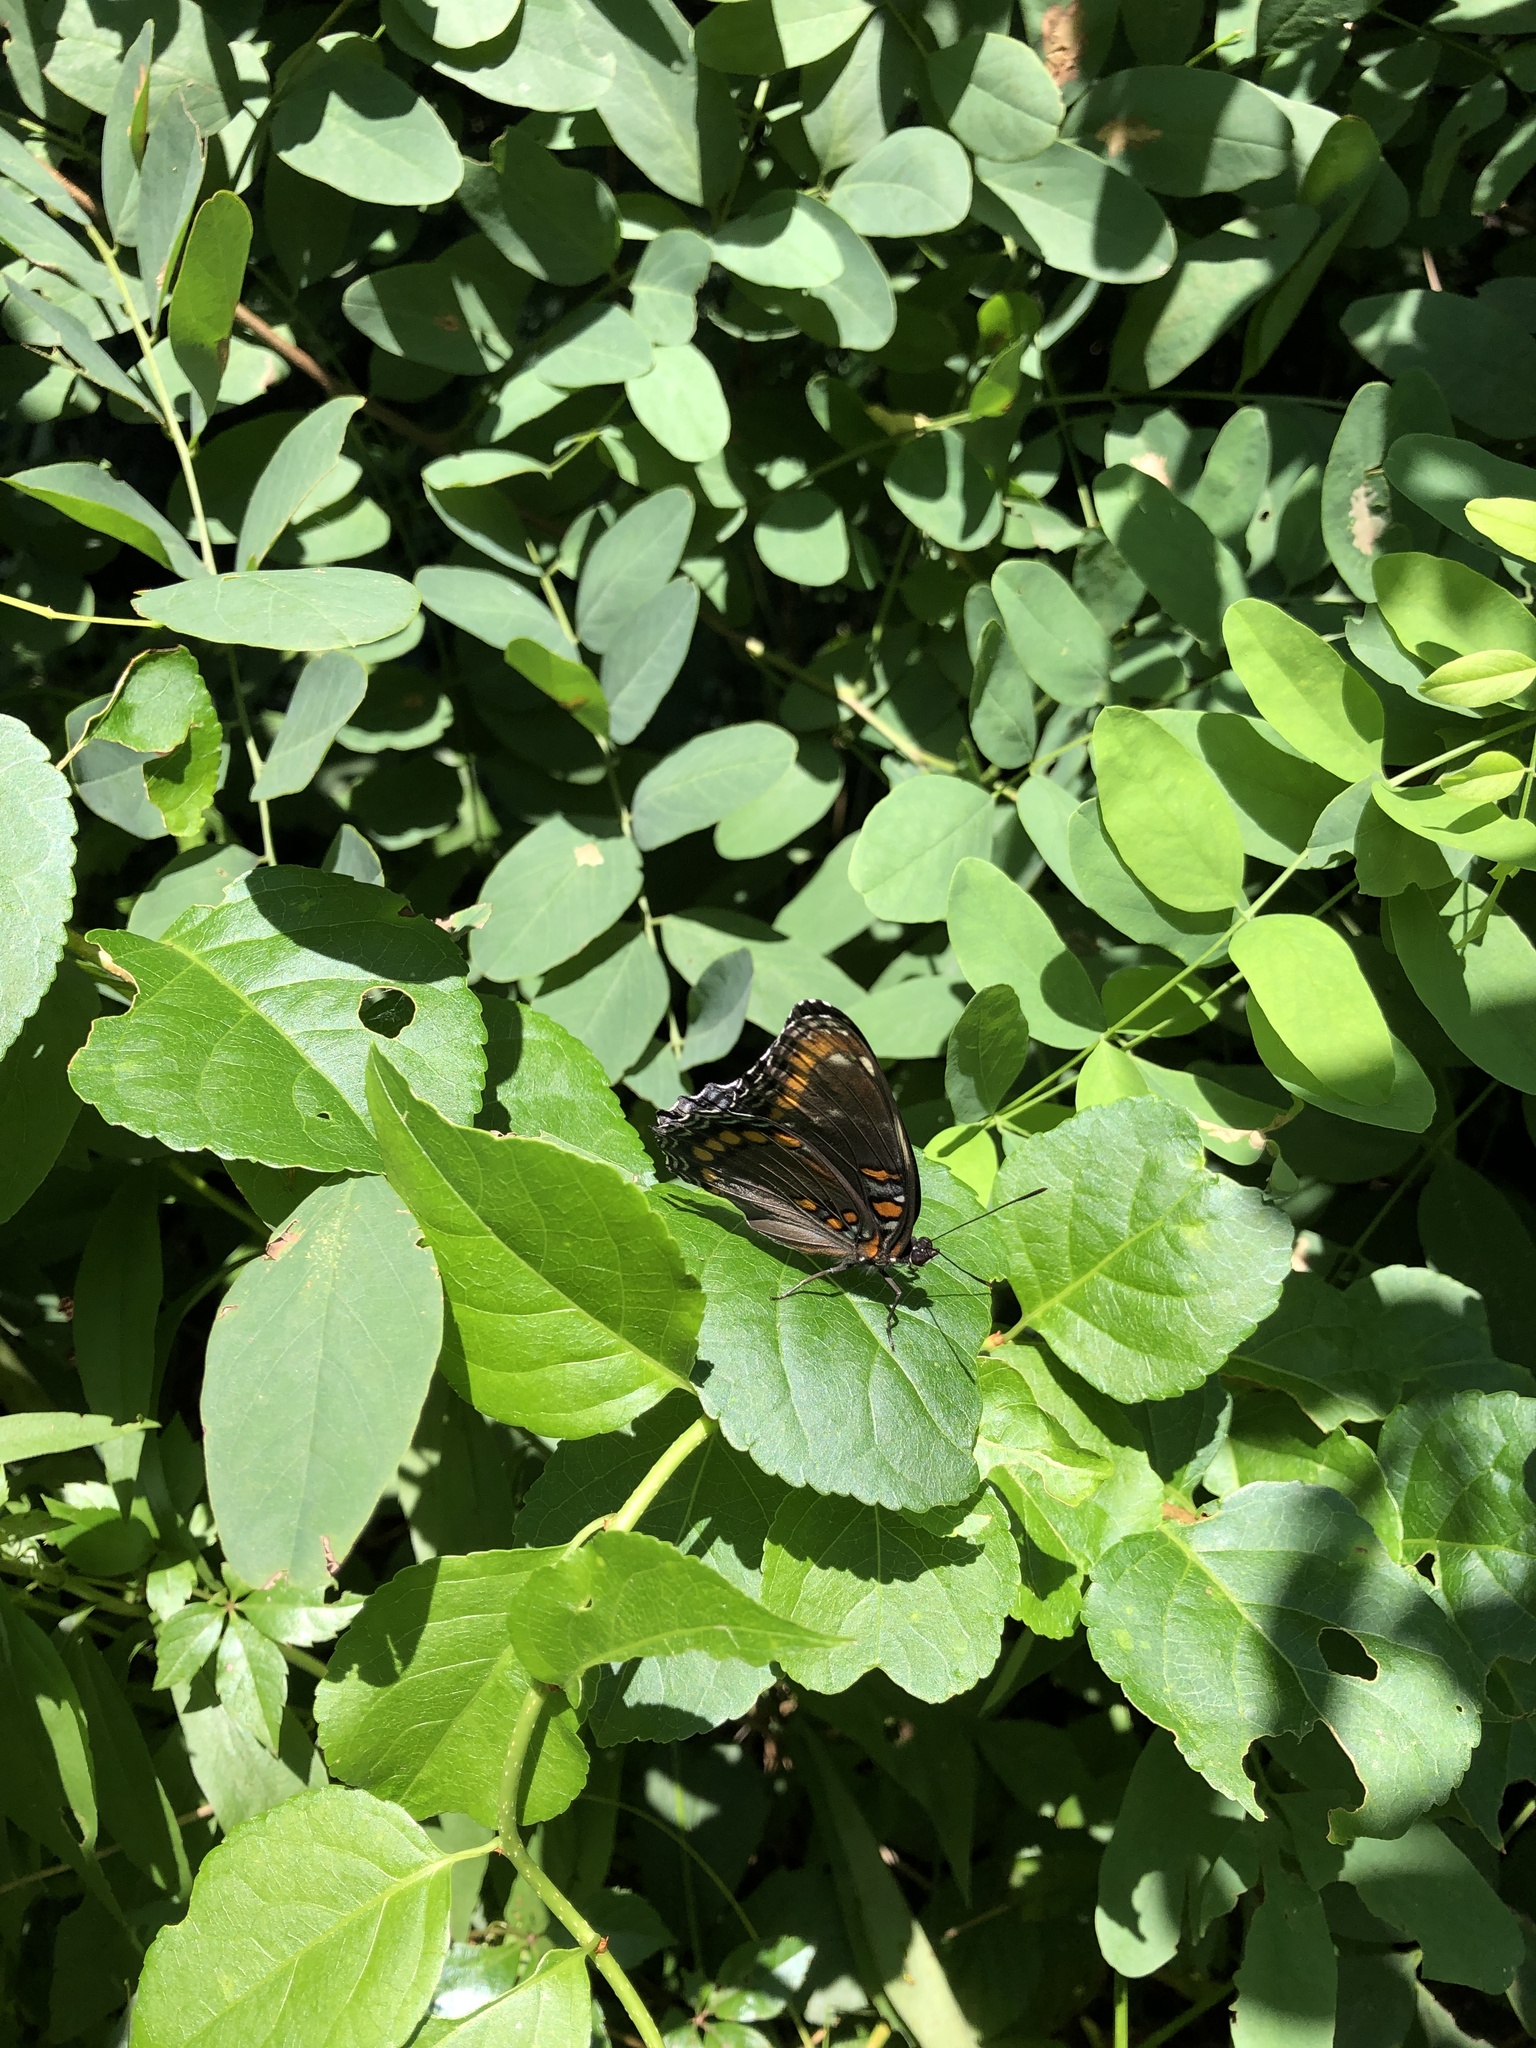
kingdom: Animalia
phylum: Arthropoda
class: Insecta
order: Lepidoptera
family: Nymphalidae
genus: Limenitis
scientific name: Limenitis astyanax
